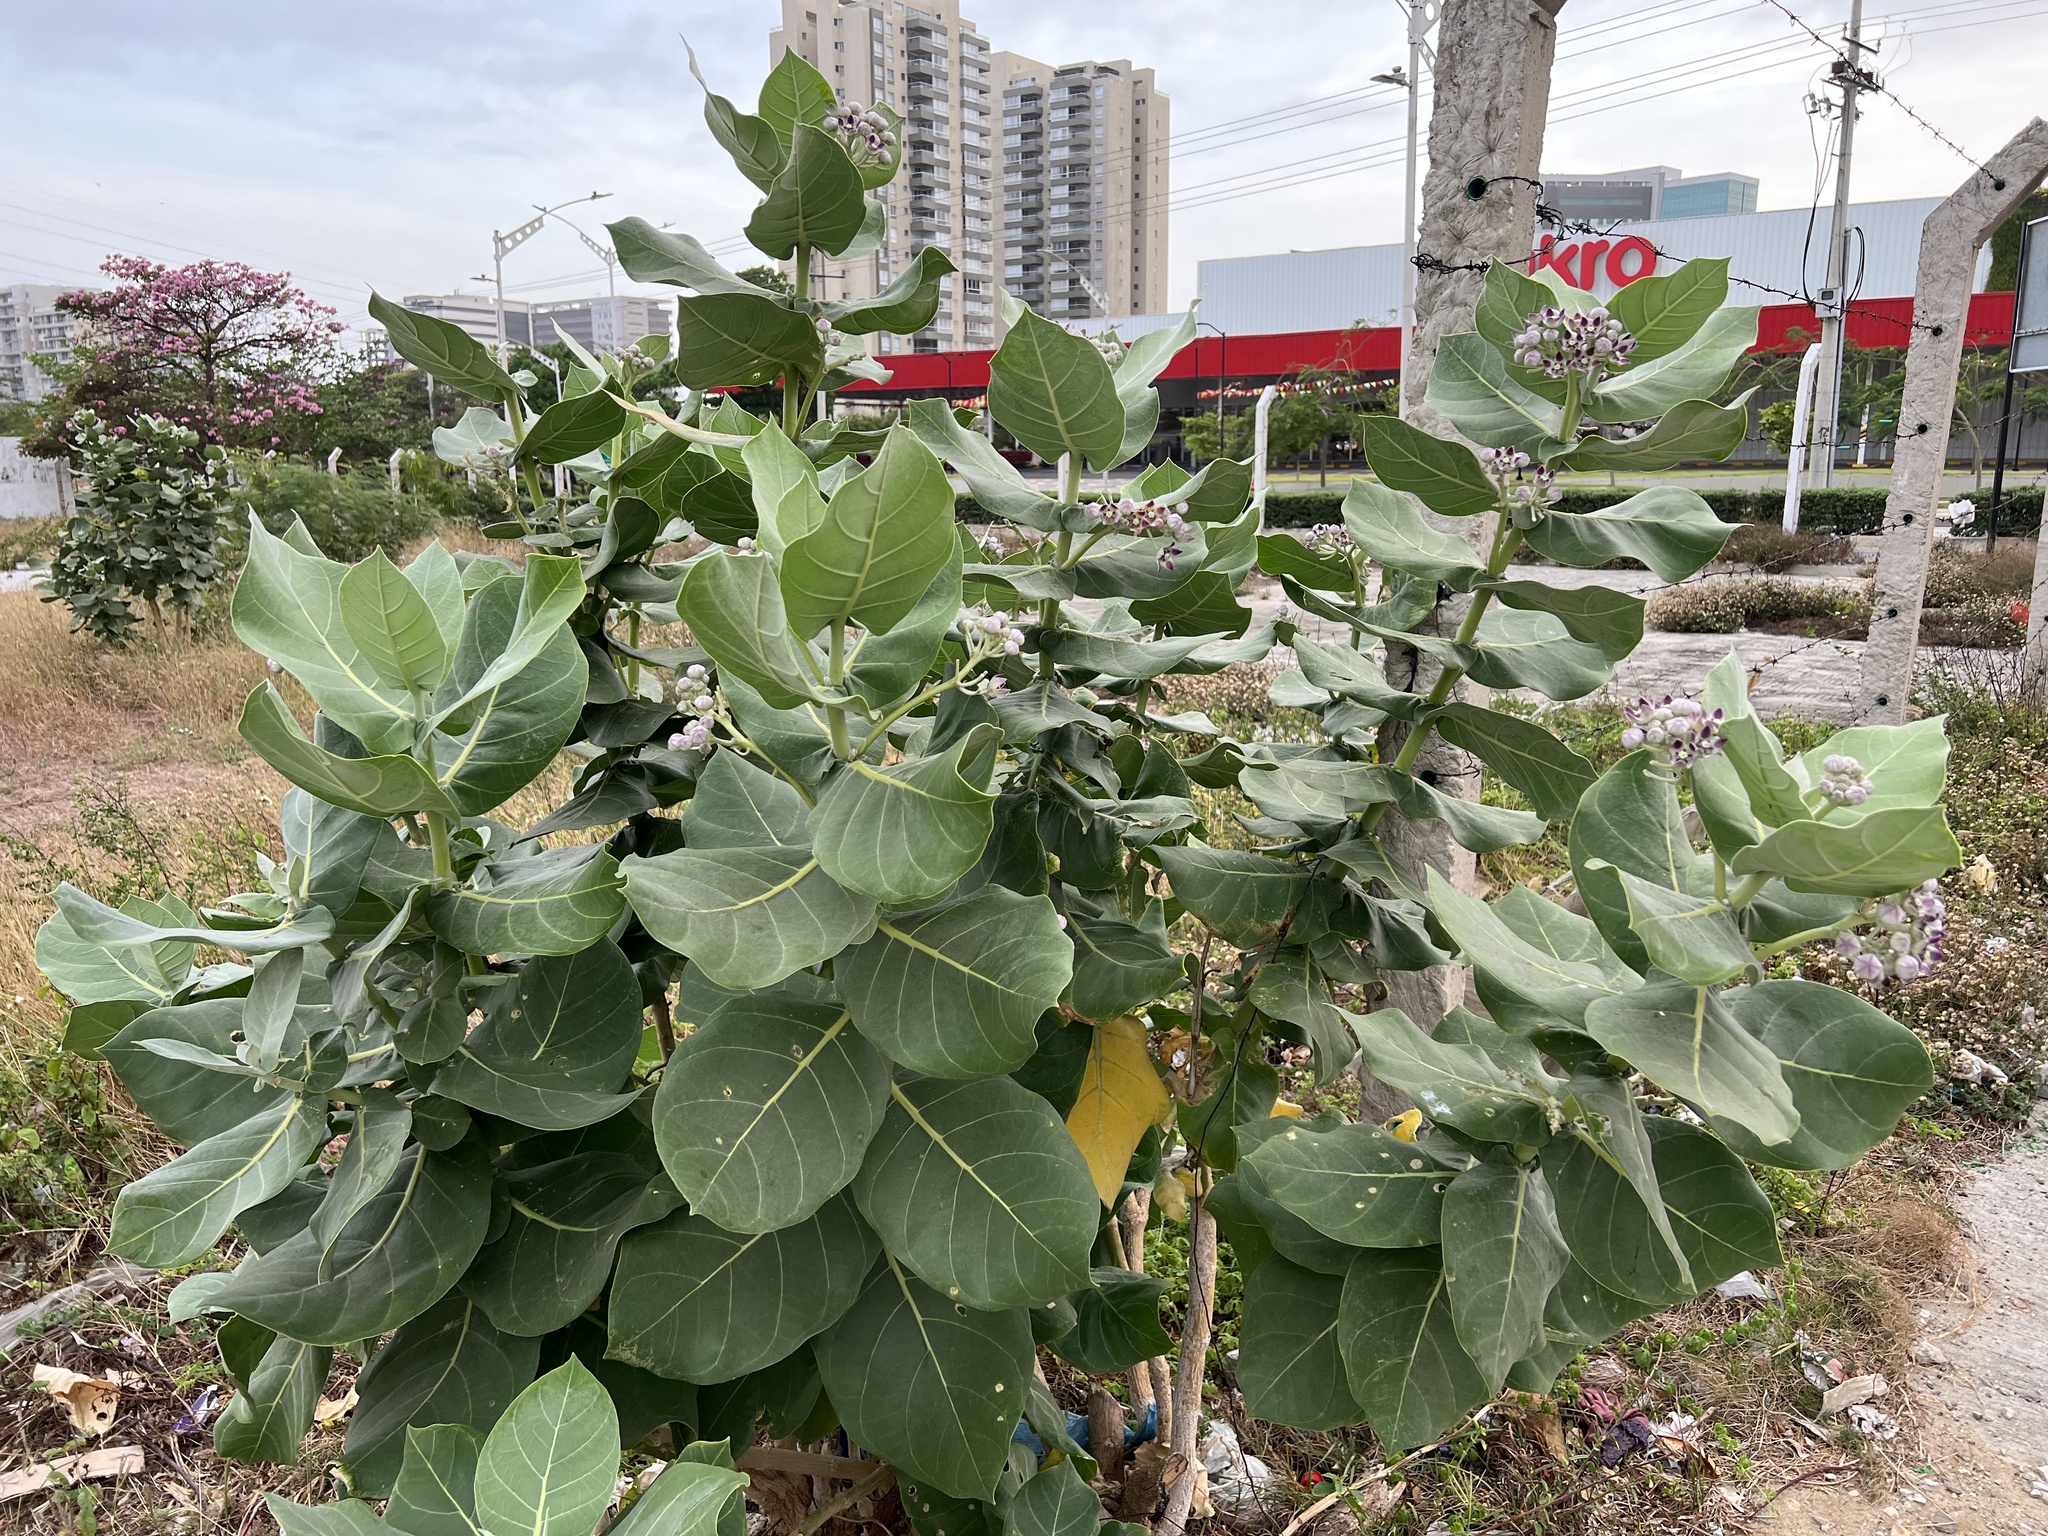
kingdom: Plantae
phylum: Tracheophyta
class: Magnoliopsida
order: Gentianales
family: Apocynaceae
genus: Calotropis
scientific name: Calotropis procera
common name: Roostertree
